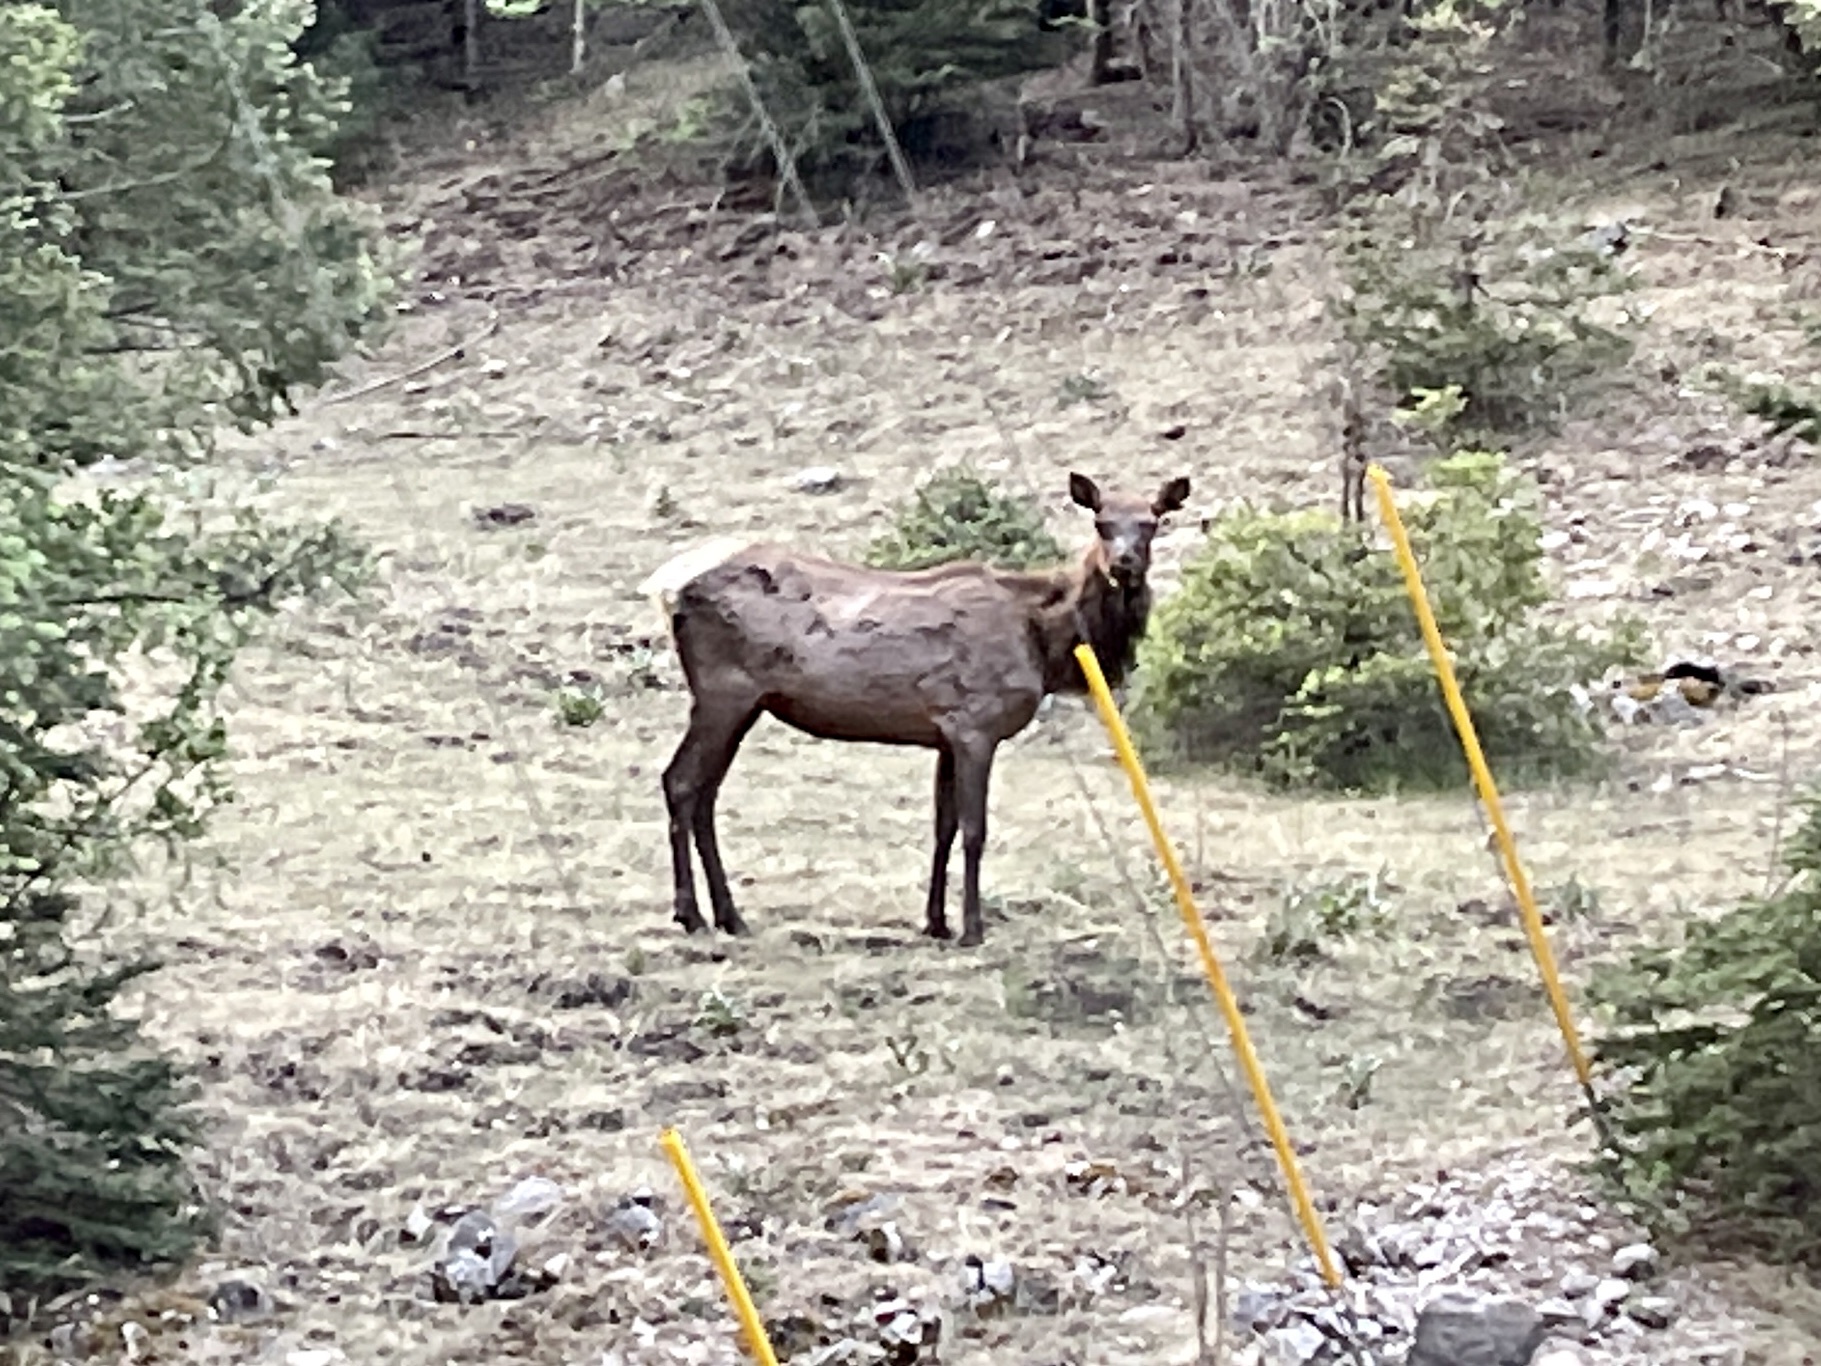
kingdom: Animalia
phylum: Chordata
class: Mammalia
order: Artiodactyla
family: Cervidae
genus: Cervus
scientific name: Cervus elaphus
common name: Red deer
